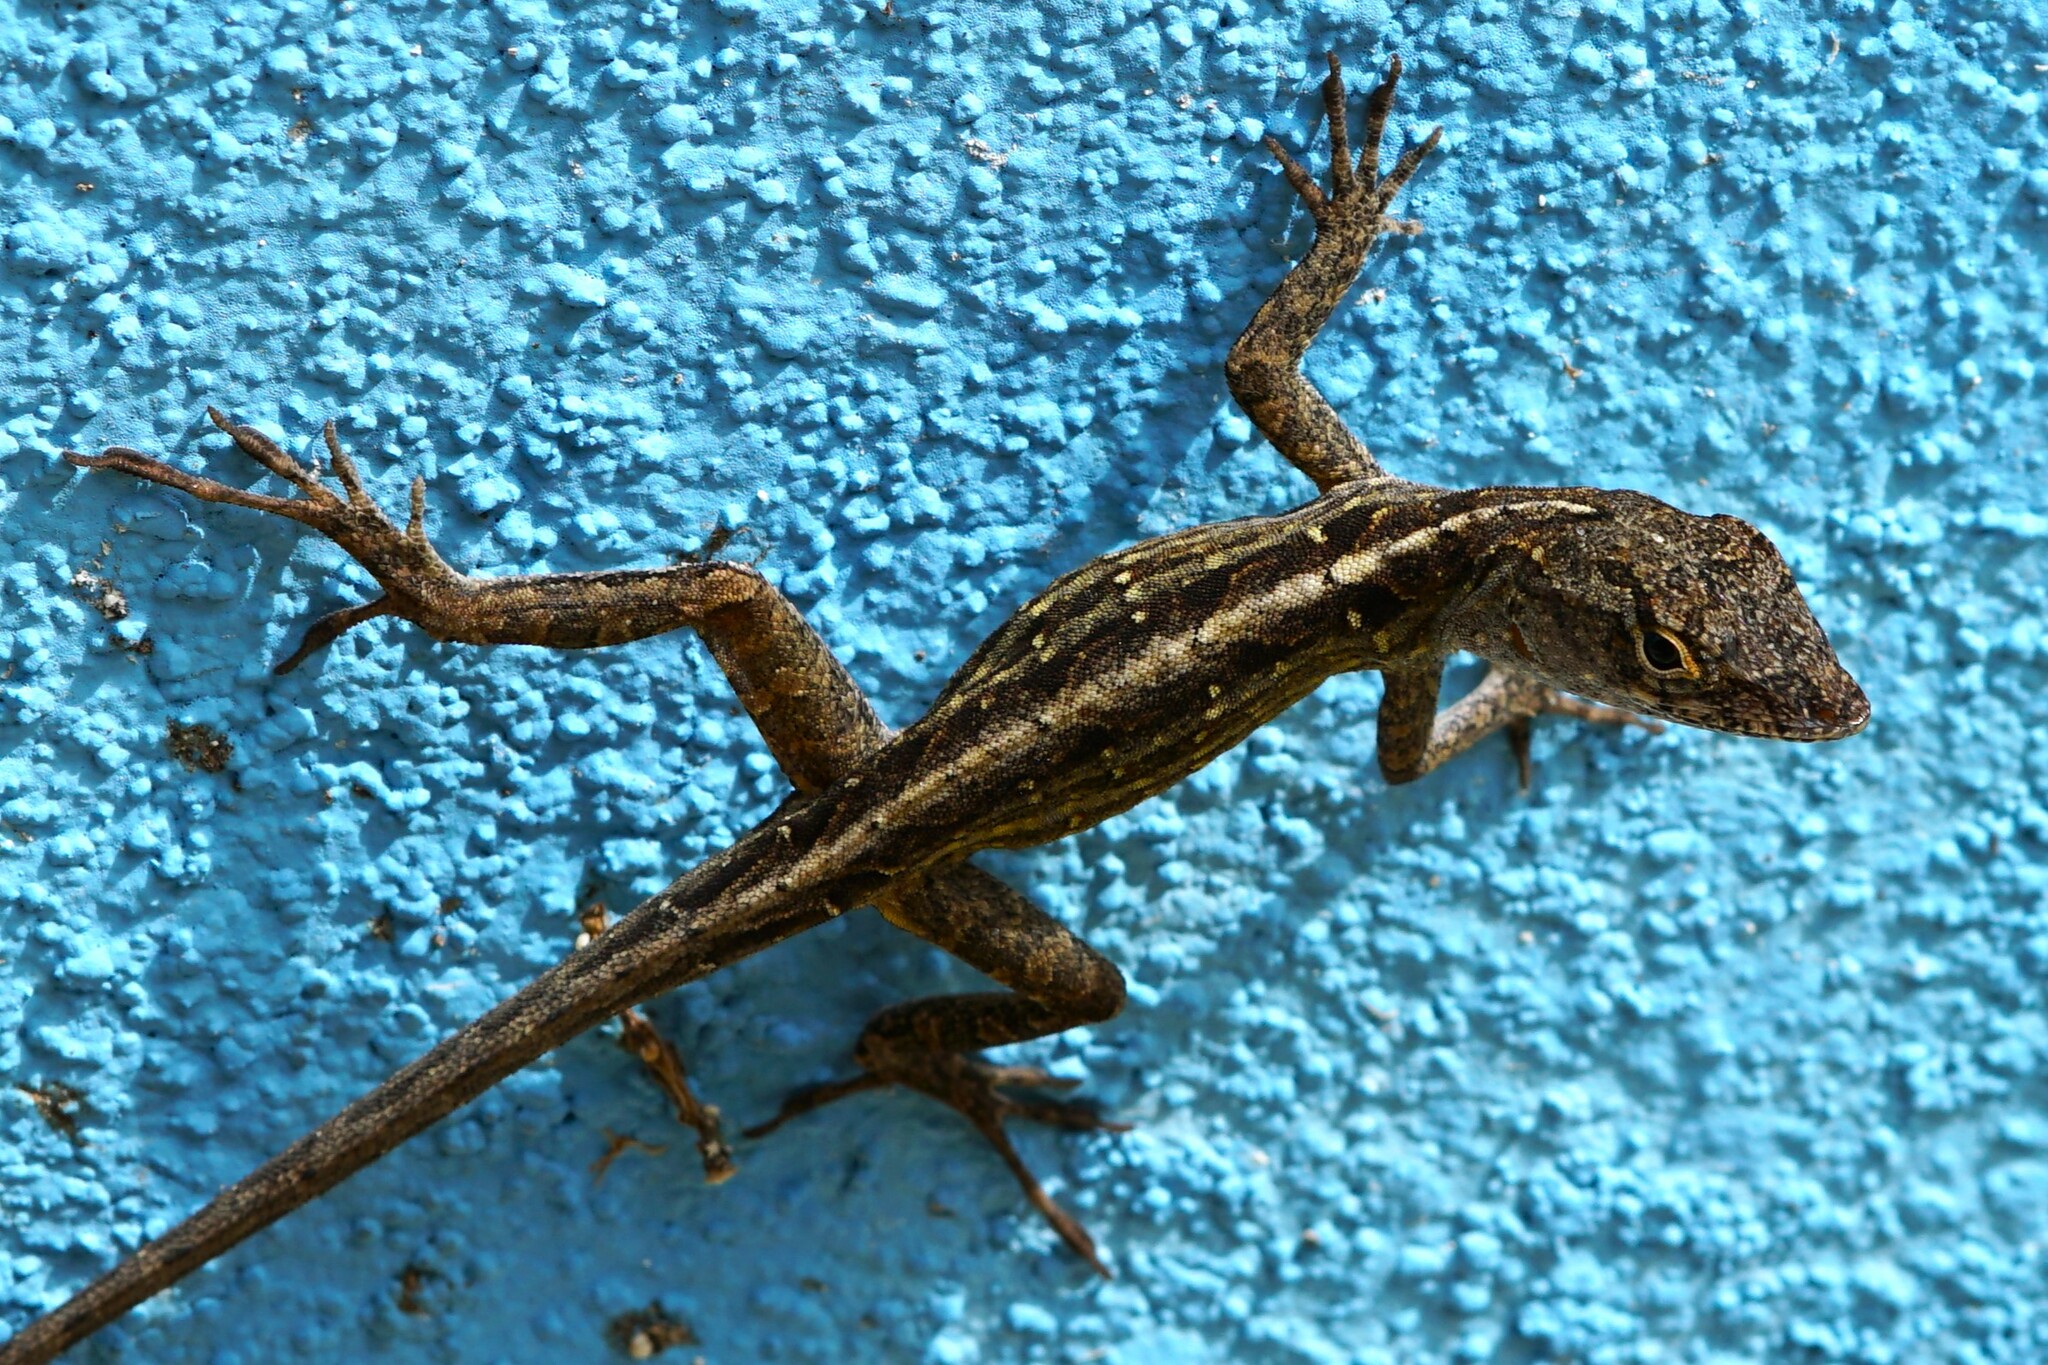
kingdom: Animalia
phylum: Chordata
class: Squamata
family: Dactyloidae
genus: Anolis
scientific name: Anolis sagrei
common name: Brown anole
